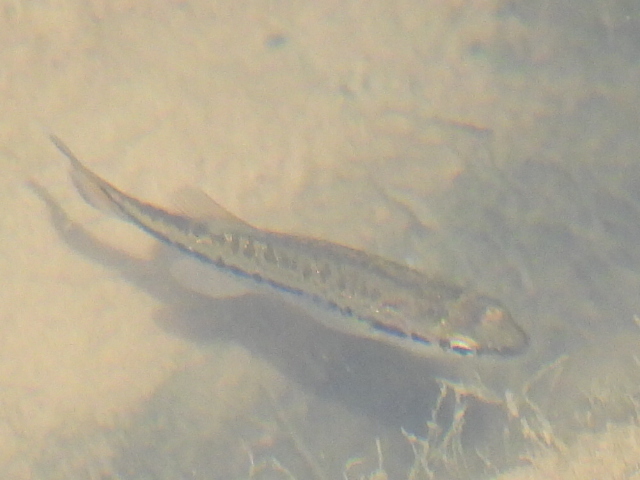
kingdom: Animalia
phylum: Chordata
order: Perciformes
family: Centrarchidae
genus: Micropterus
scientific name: Micropterus
